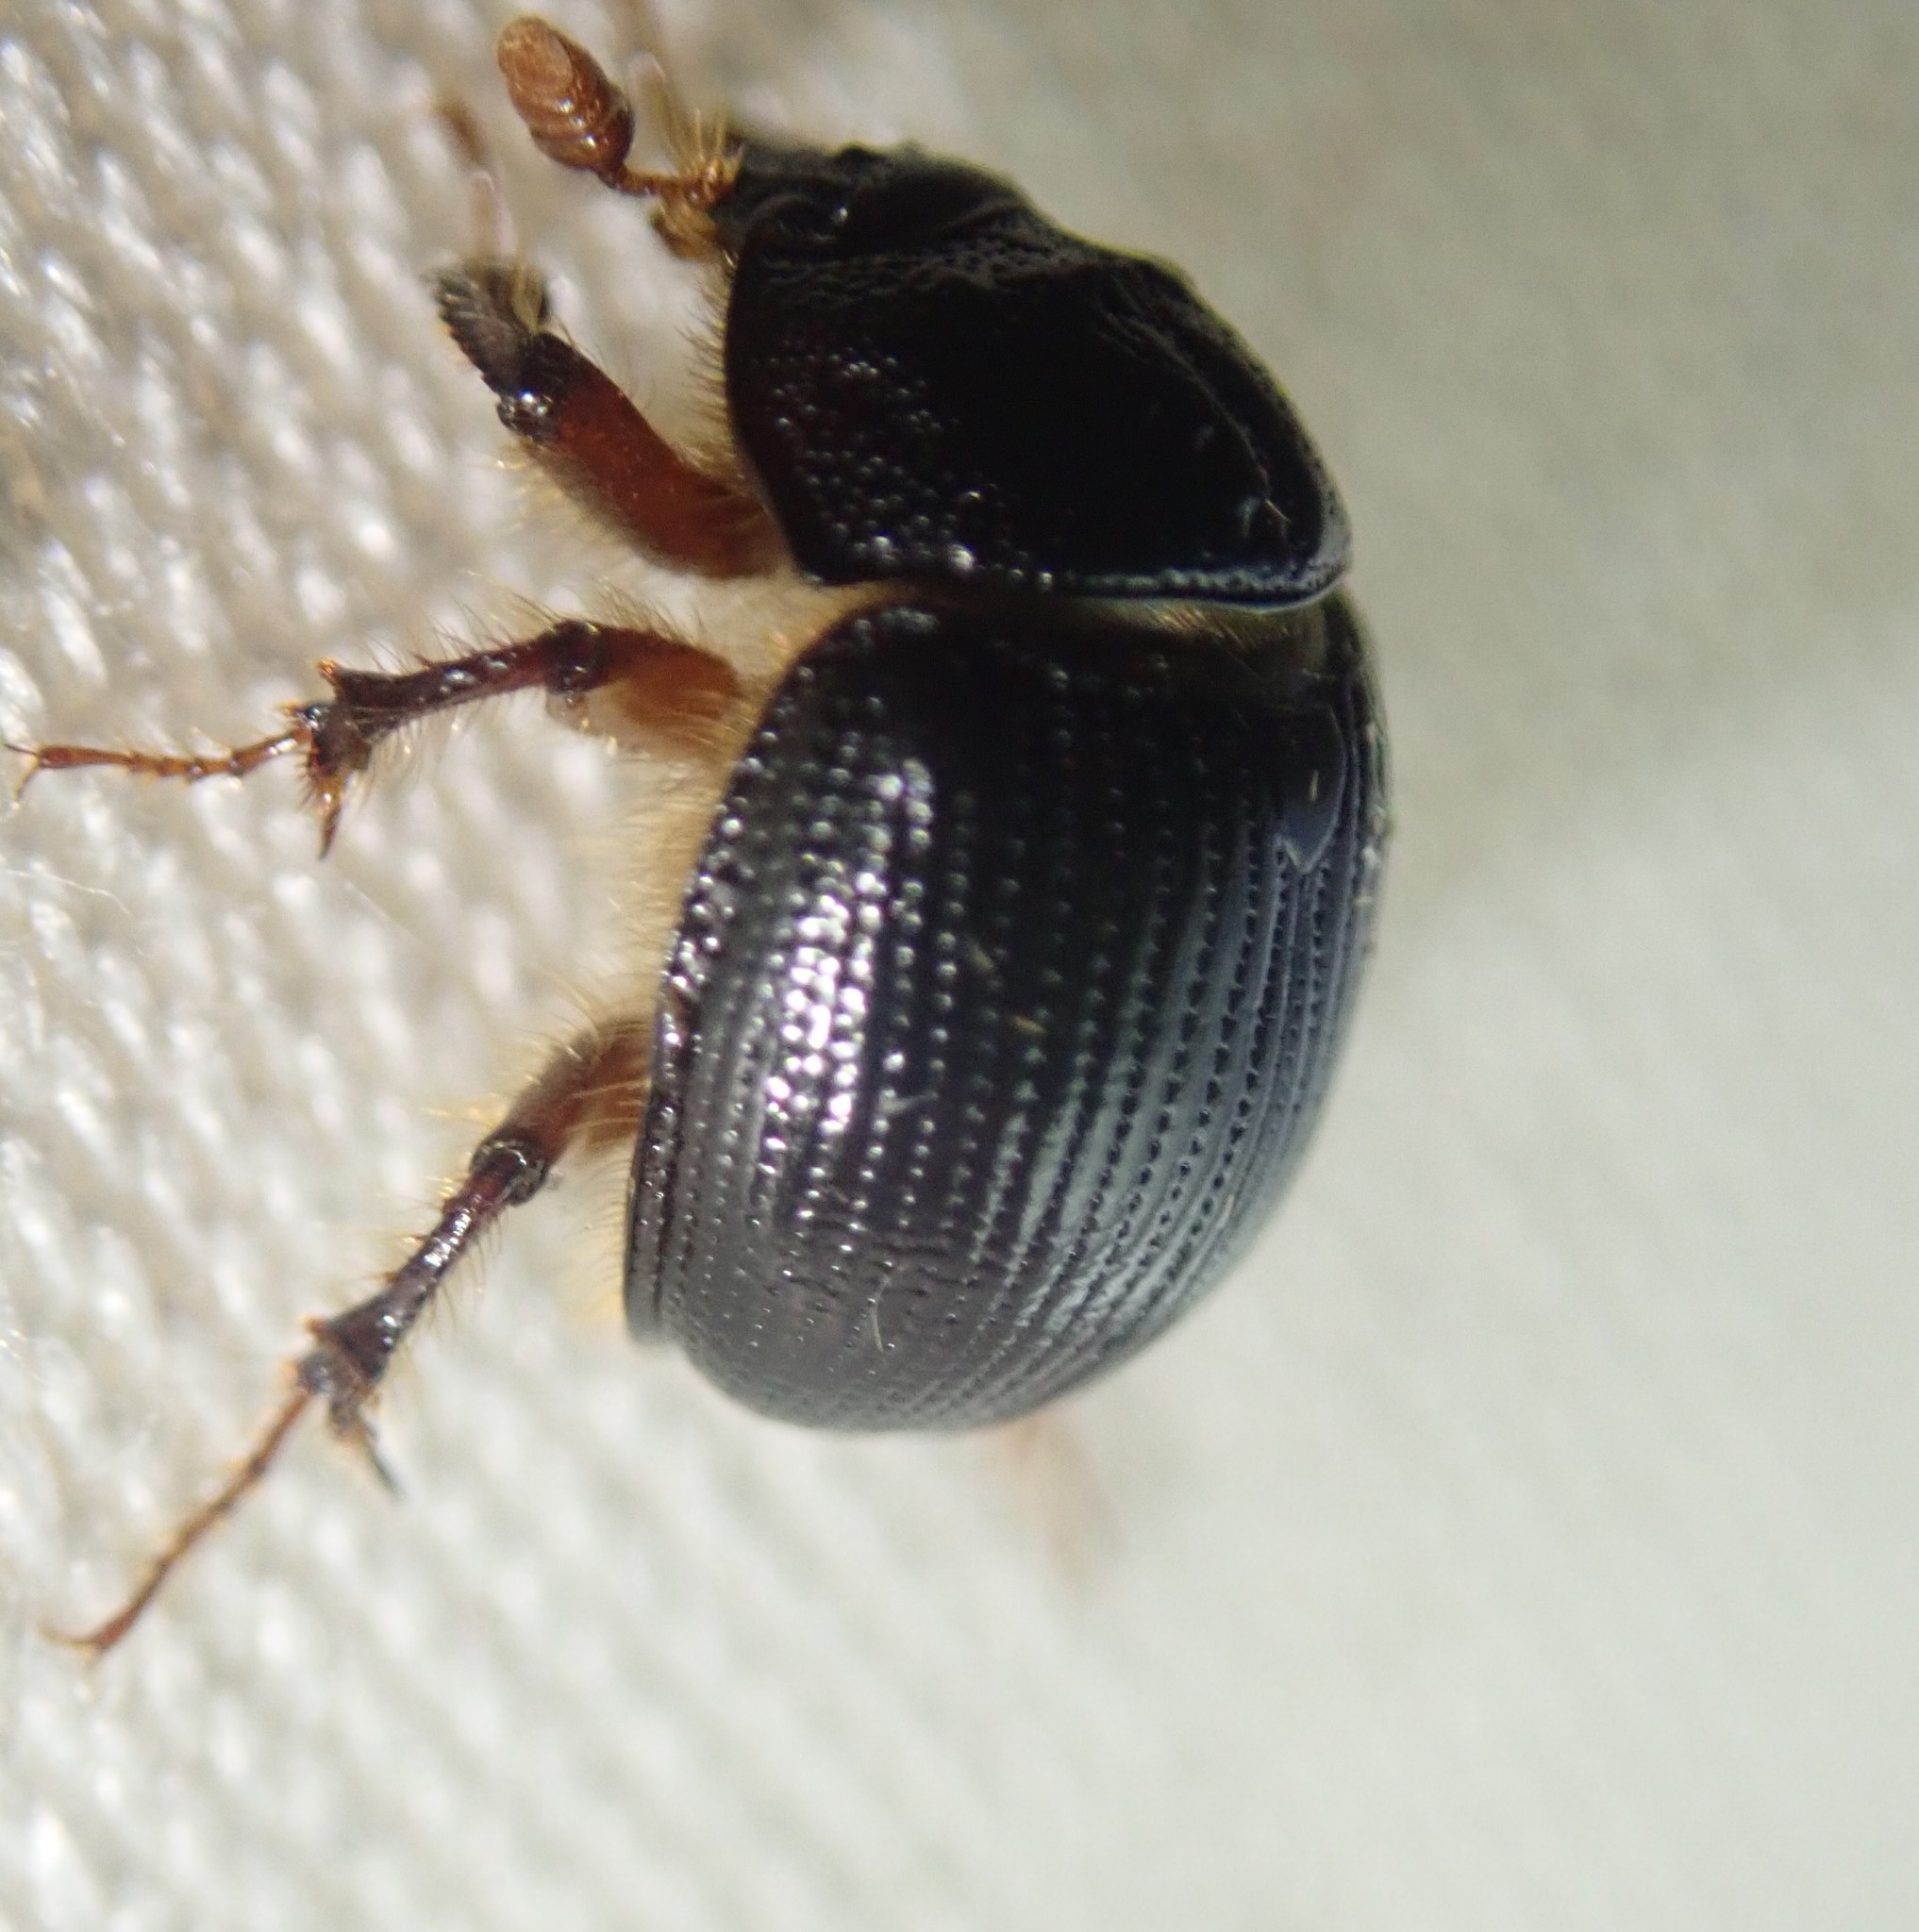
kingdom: Animalia
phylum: Arthropoda
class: Insecta
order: Coleoptera
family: Geotrupidae
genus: Odonteus
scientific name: Odonteus armiger
